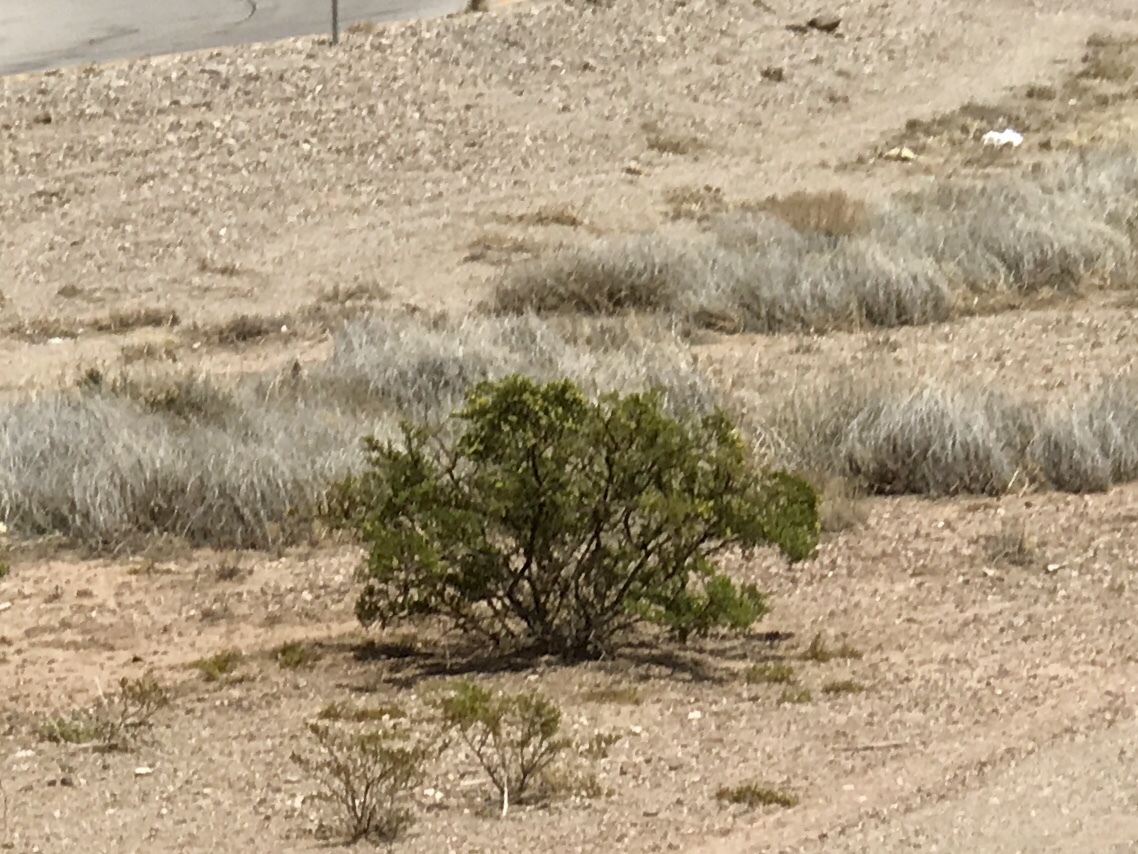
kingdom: Plantae
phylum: Tracheophyta
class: Magnoliopsida
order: Zygophyllales
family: Zygophyllaceae
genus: Larrea
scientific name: Larrea tridentata
